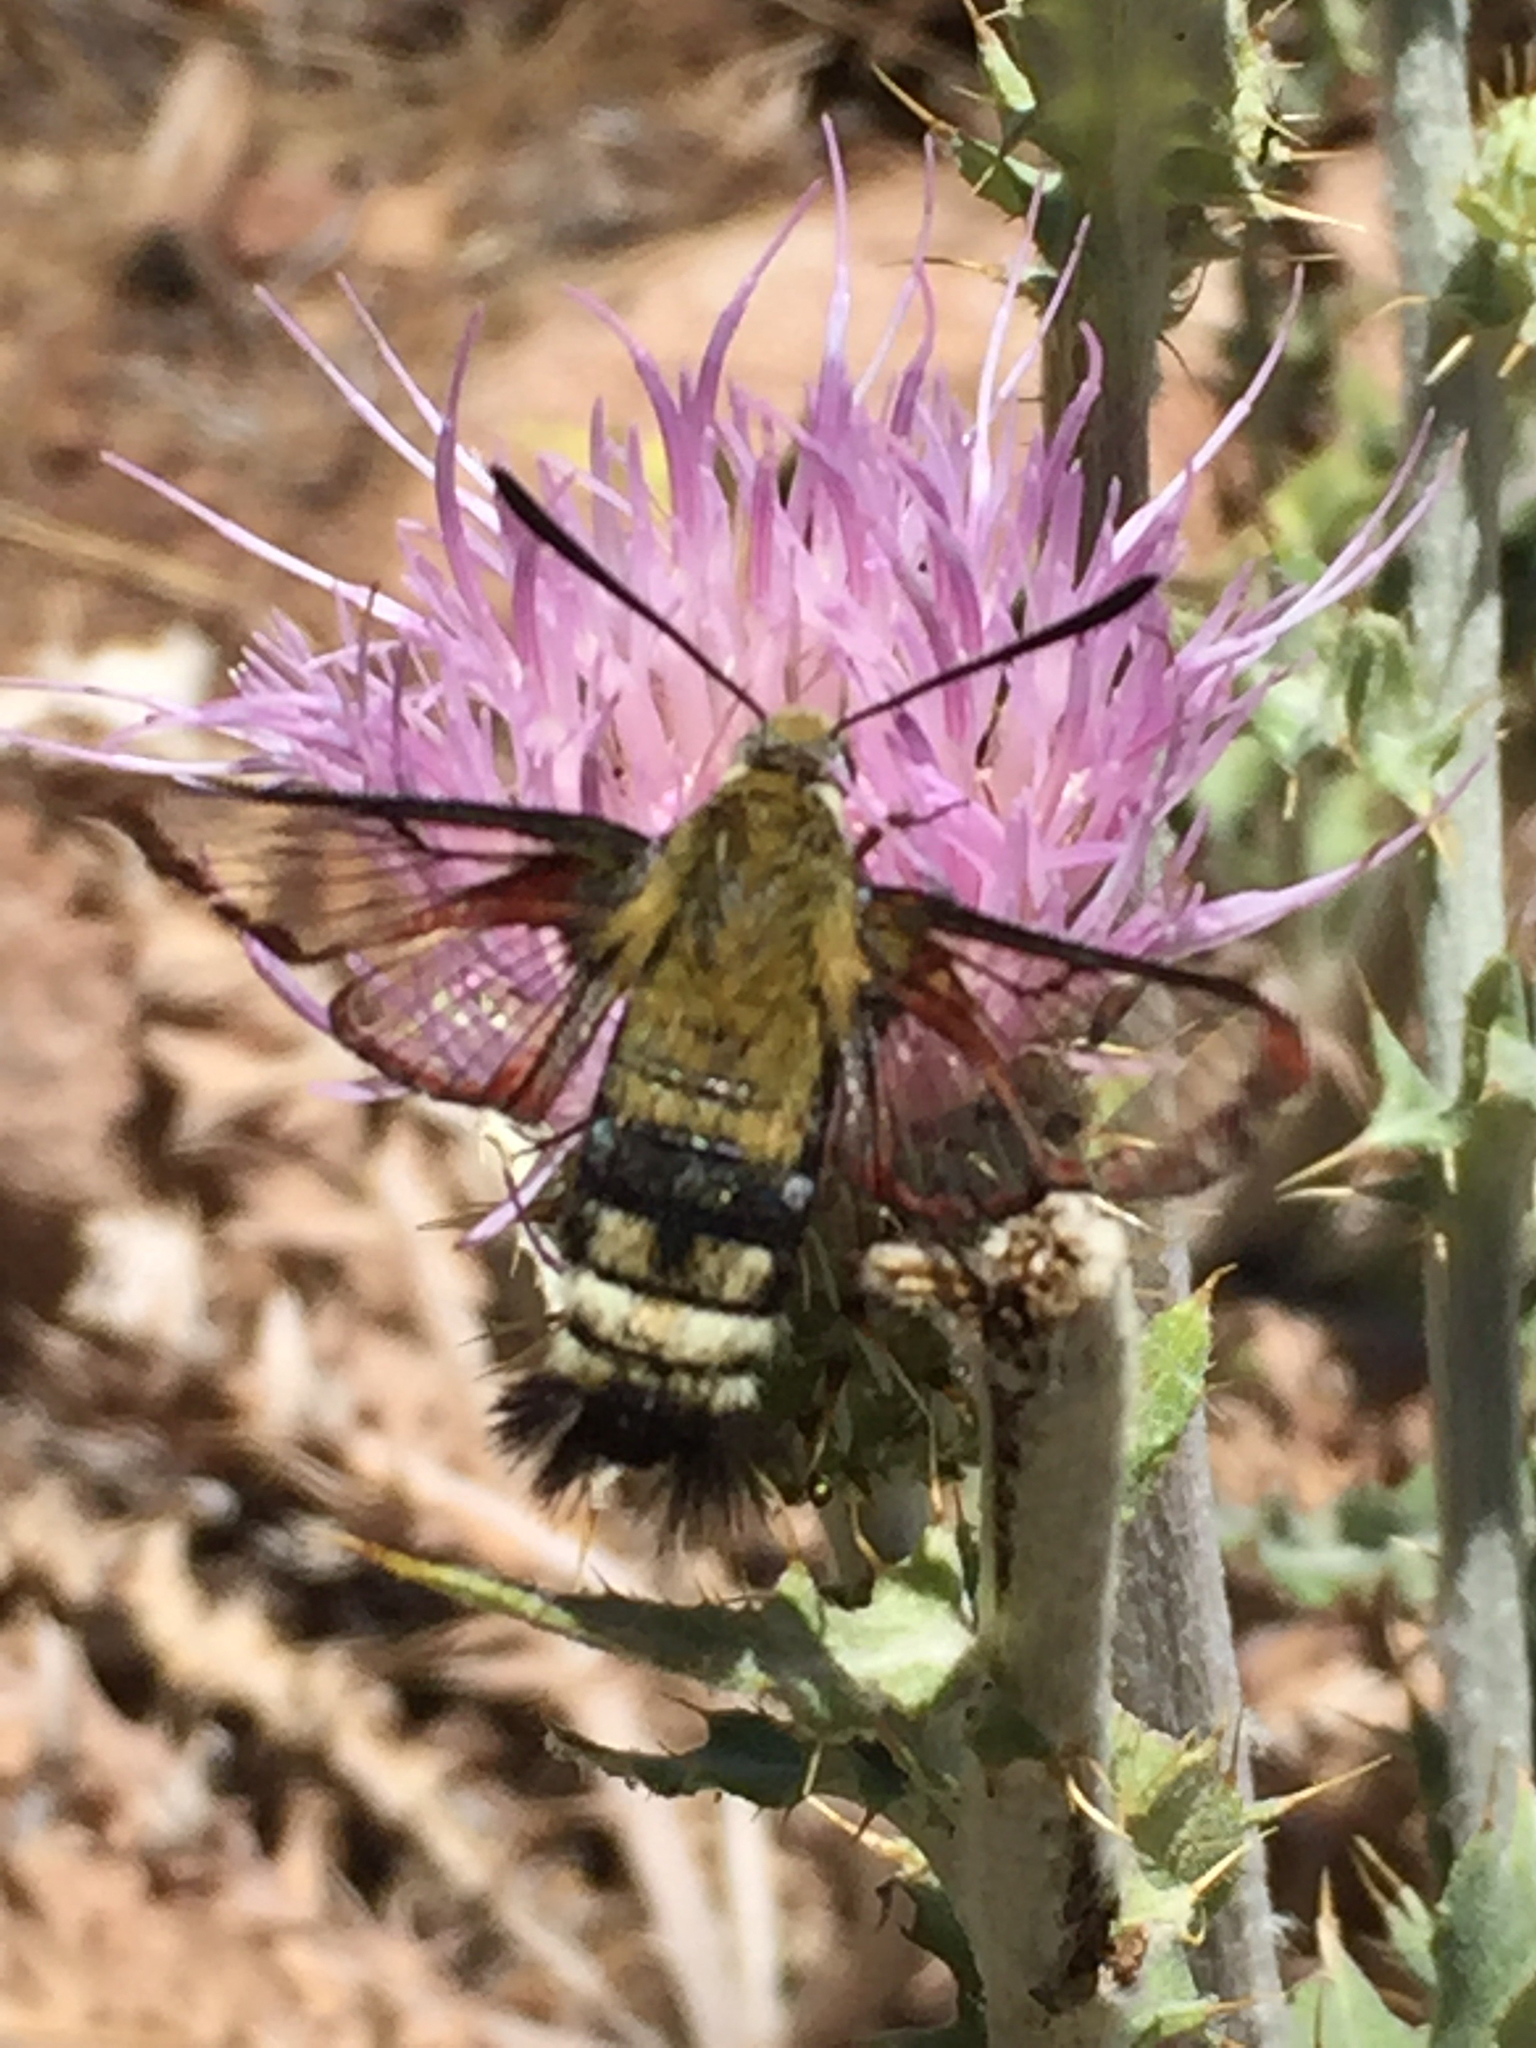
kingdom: Animalia
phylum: Arthropoda
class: Insecta
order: Lepidoptera
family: Sphingidae
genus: Hemaris
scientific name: Hemaris thetis
